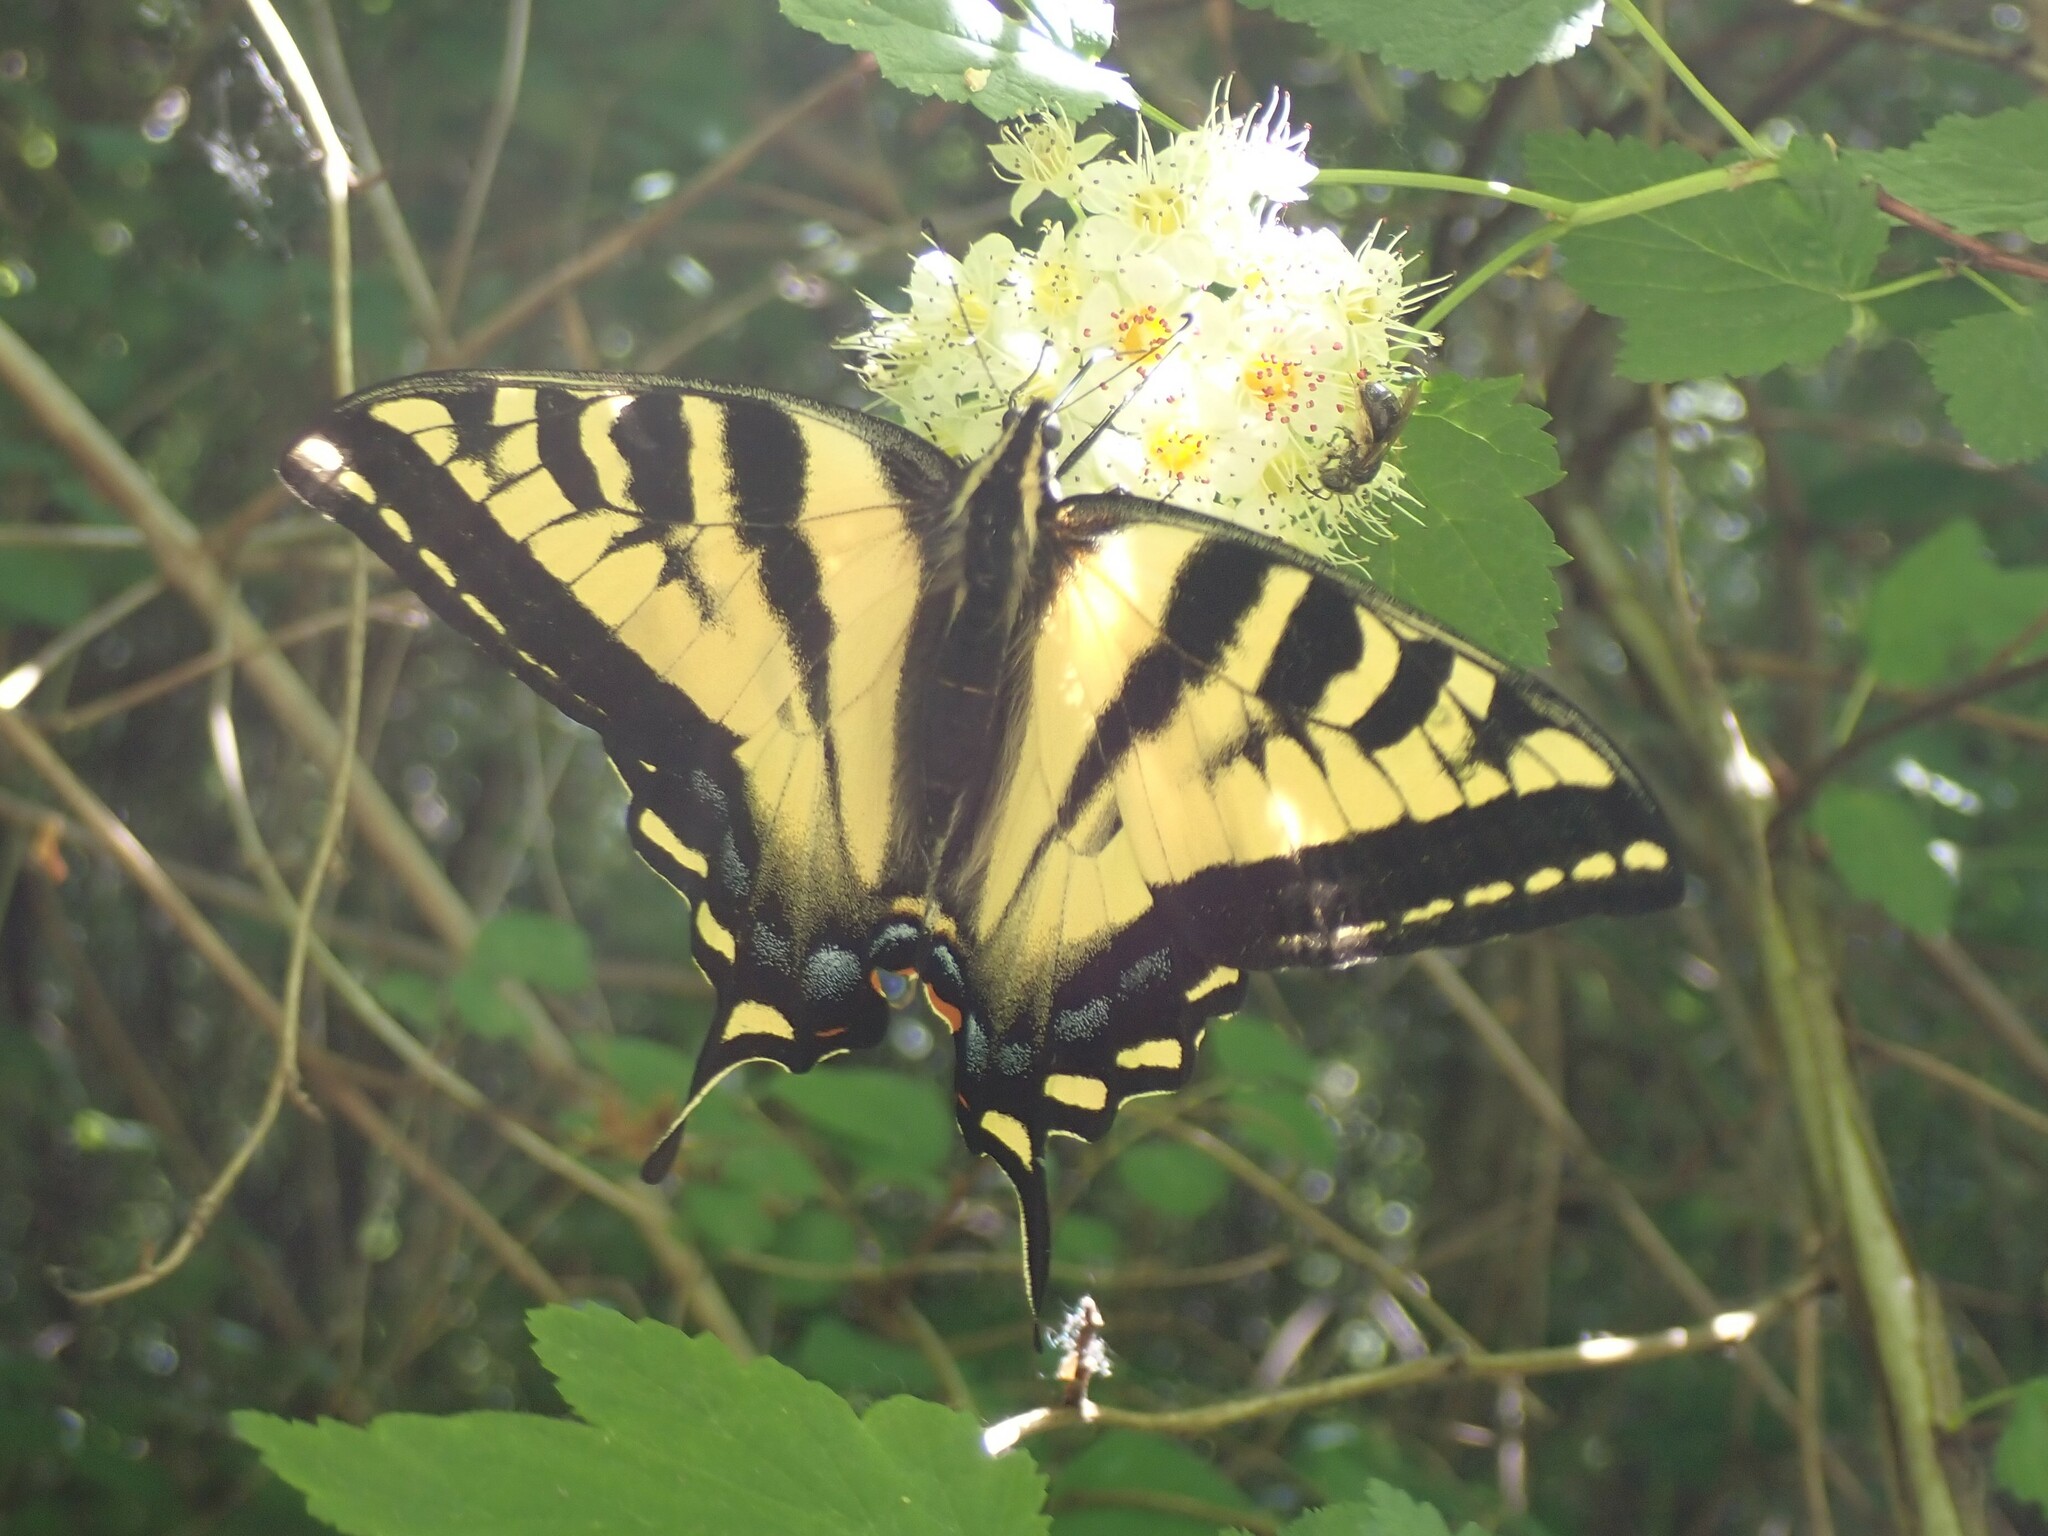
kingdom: Animalia
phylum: Arthropoda
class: Insecta
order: Lepidoptera
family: Papilionidae
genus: Papilio
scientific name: Papilio rutulus
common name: Western tiger swallowtail
